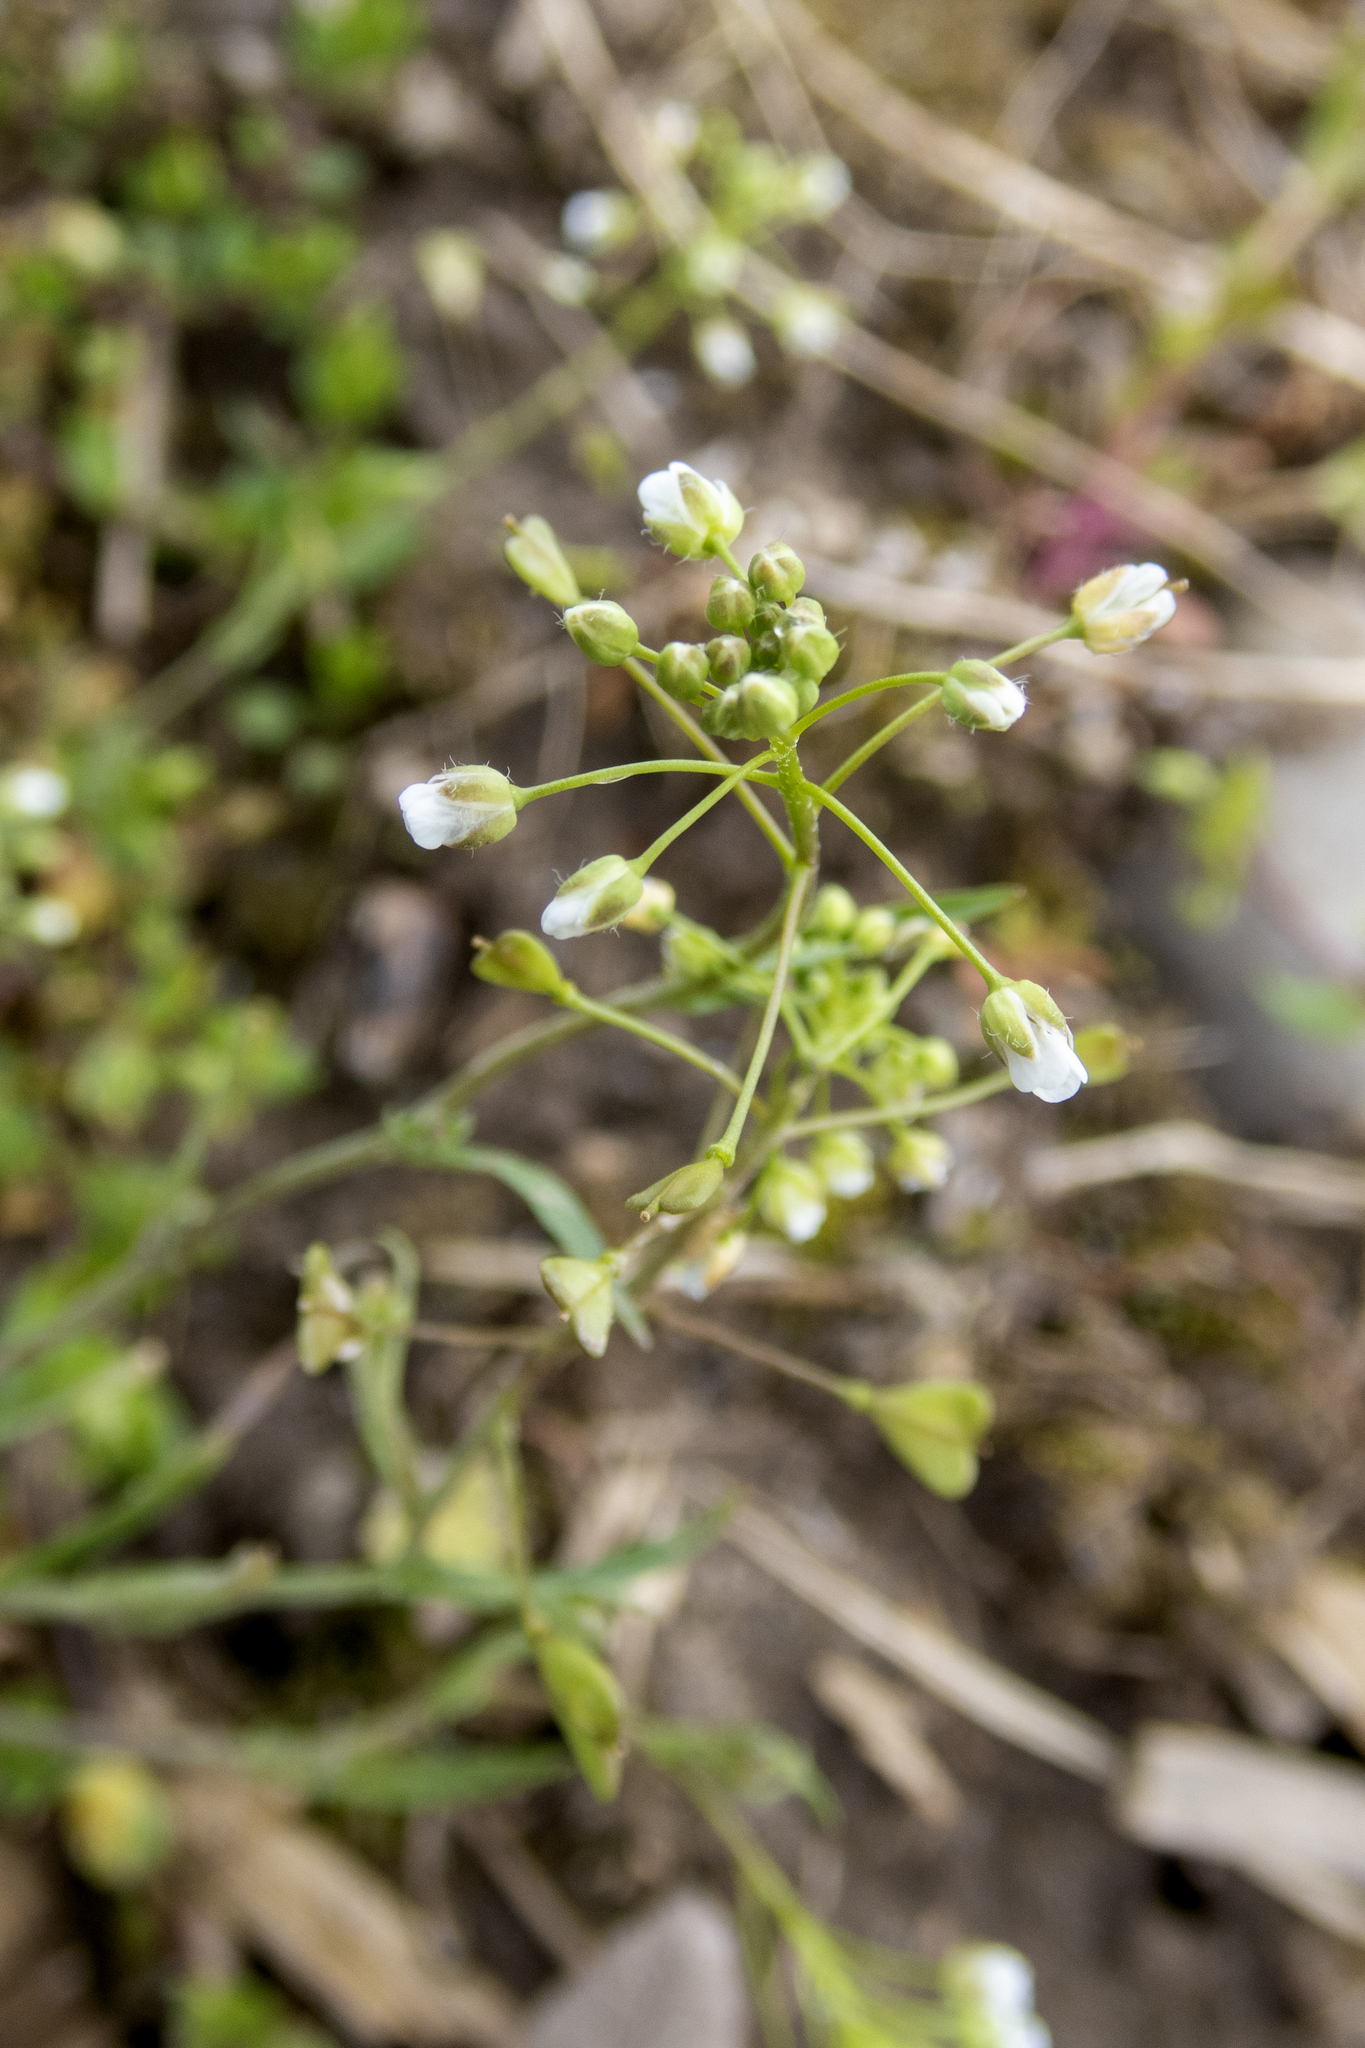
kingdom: Plantae
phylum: Tracheophyta
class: Magnoliopsida
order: Brassicales
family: Brassicaceae
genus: Capsella
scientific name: Capsella bursa-pastoris
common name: Shepherd's purse
